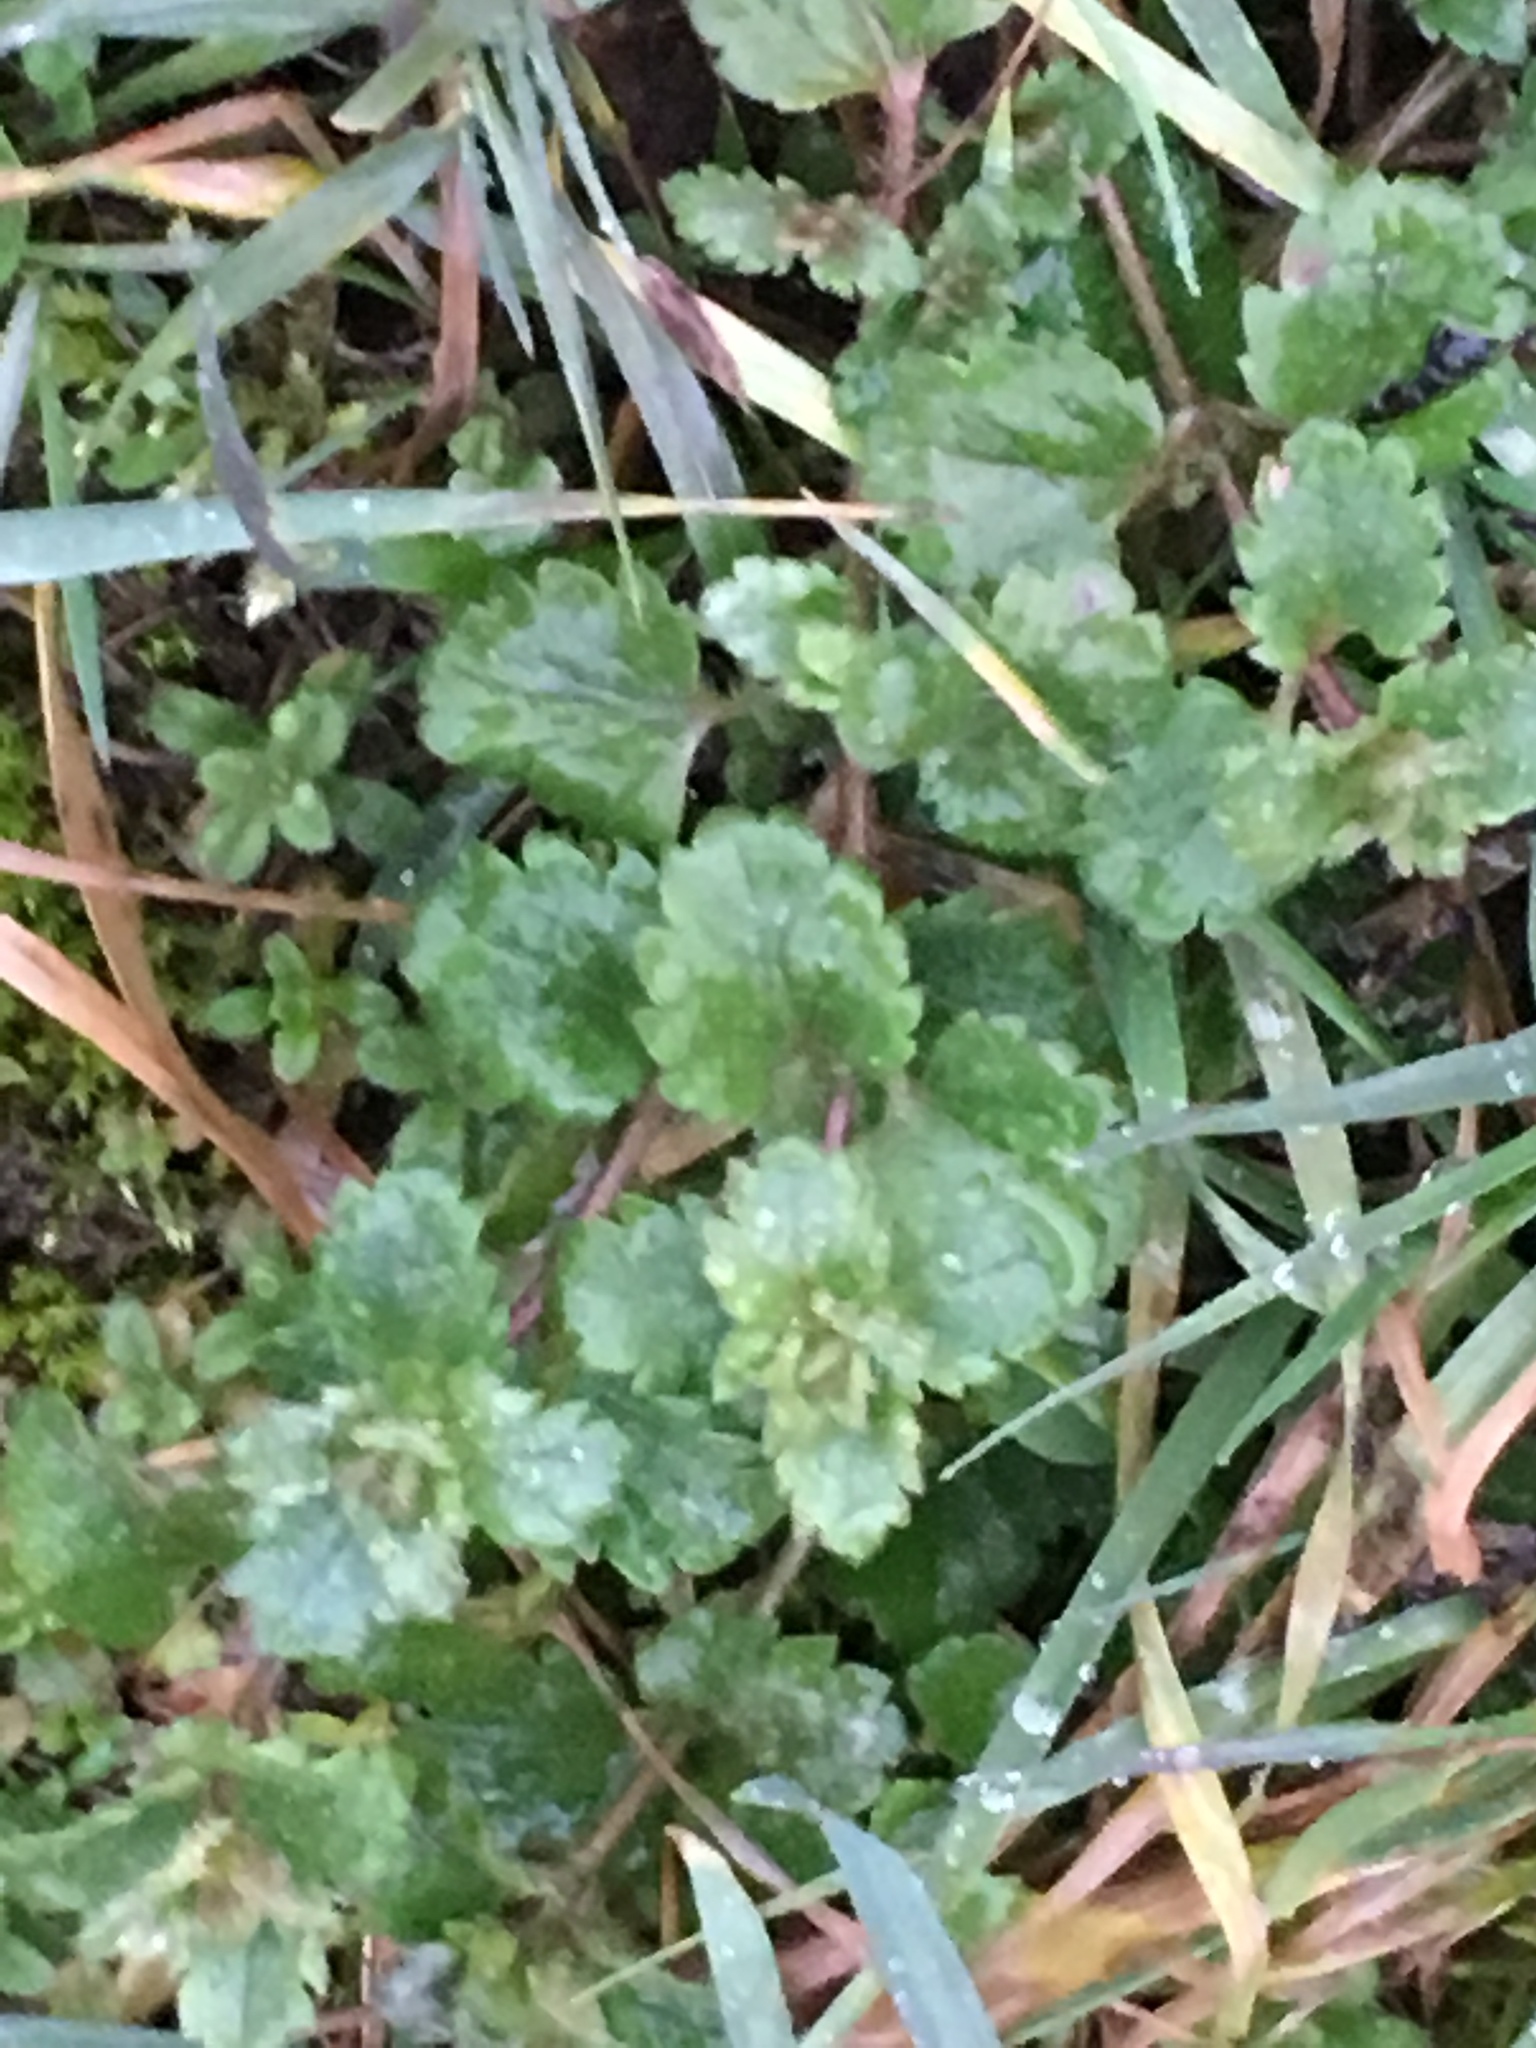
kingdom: Plantae
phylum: Tracheophyta
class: Magnoliopsida
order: Lamiales
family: Plantaginaceae
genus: Veronica
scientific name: Veronica persica
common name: Common field-speedwell
